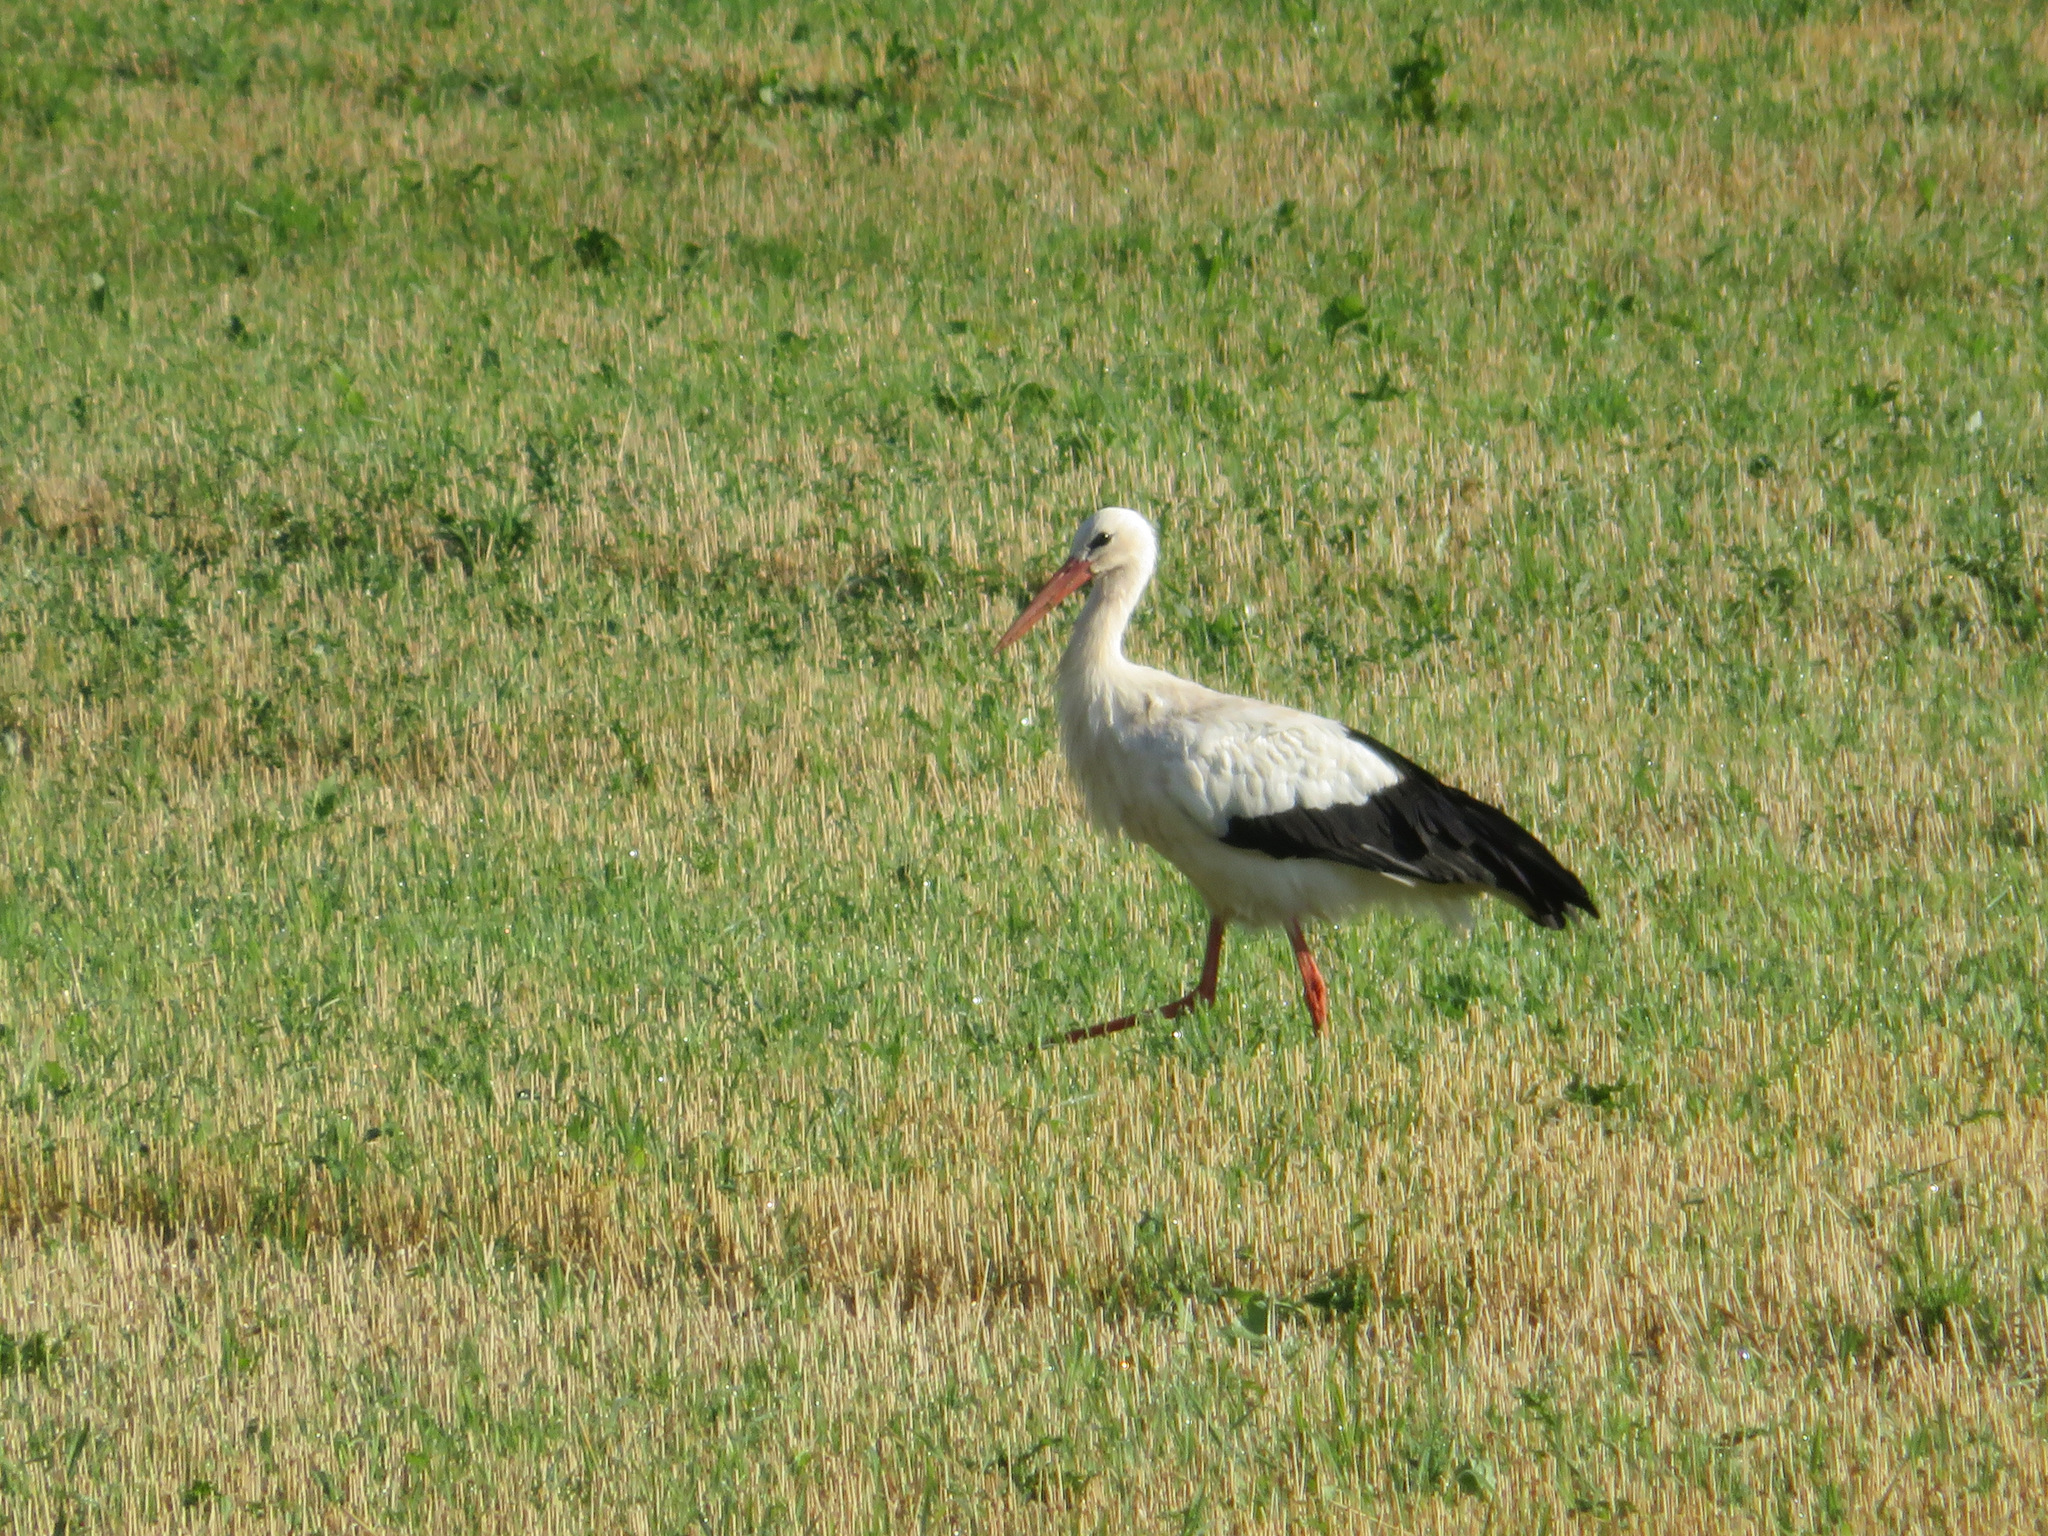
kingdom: Animalia
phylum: Chordata
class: Aves
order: Ciconiiformes
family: Ciconiidae
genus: Ciconia
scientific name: Ciconia ciconia
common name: White stork
